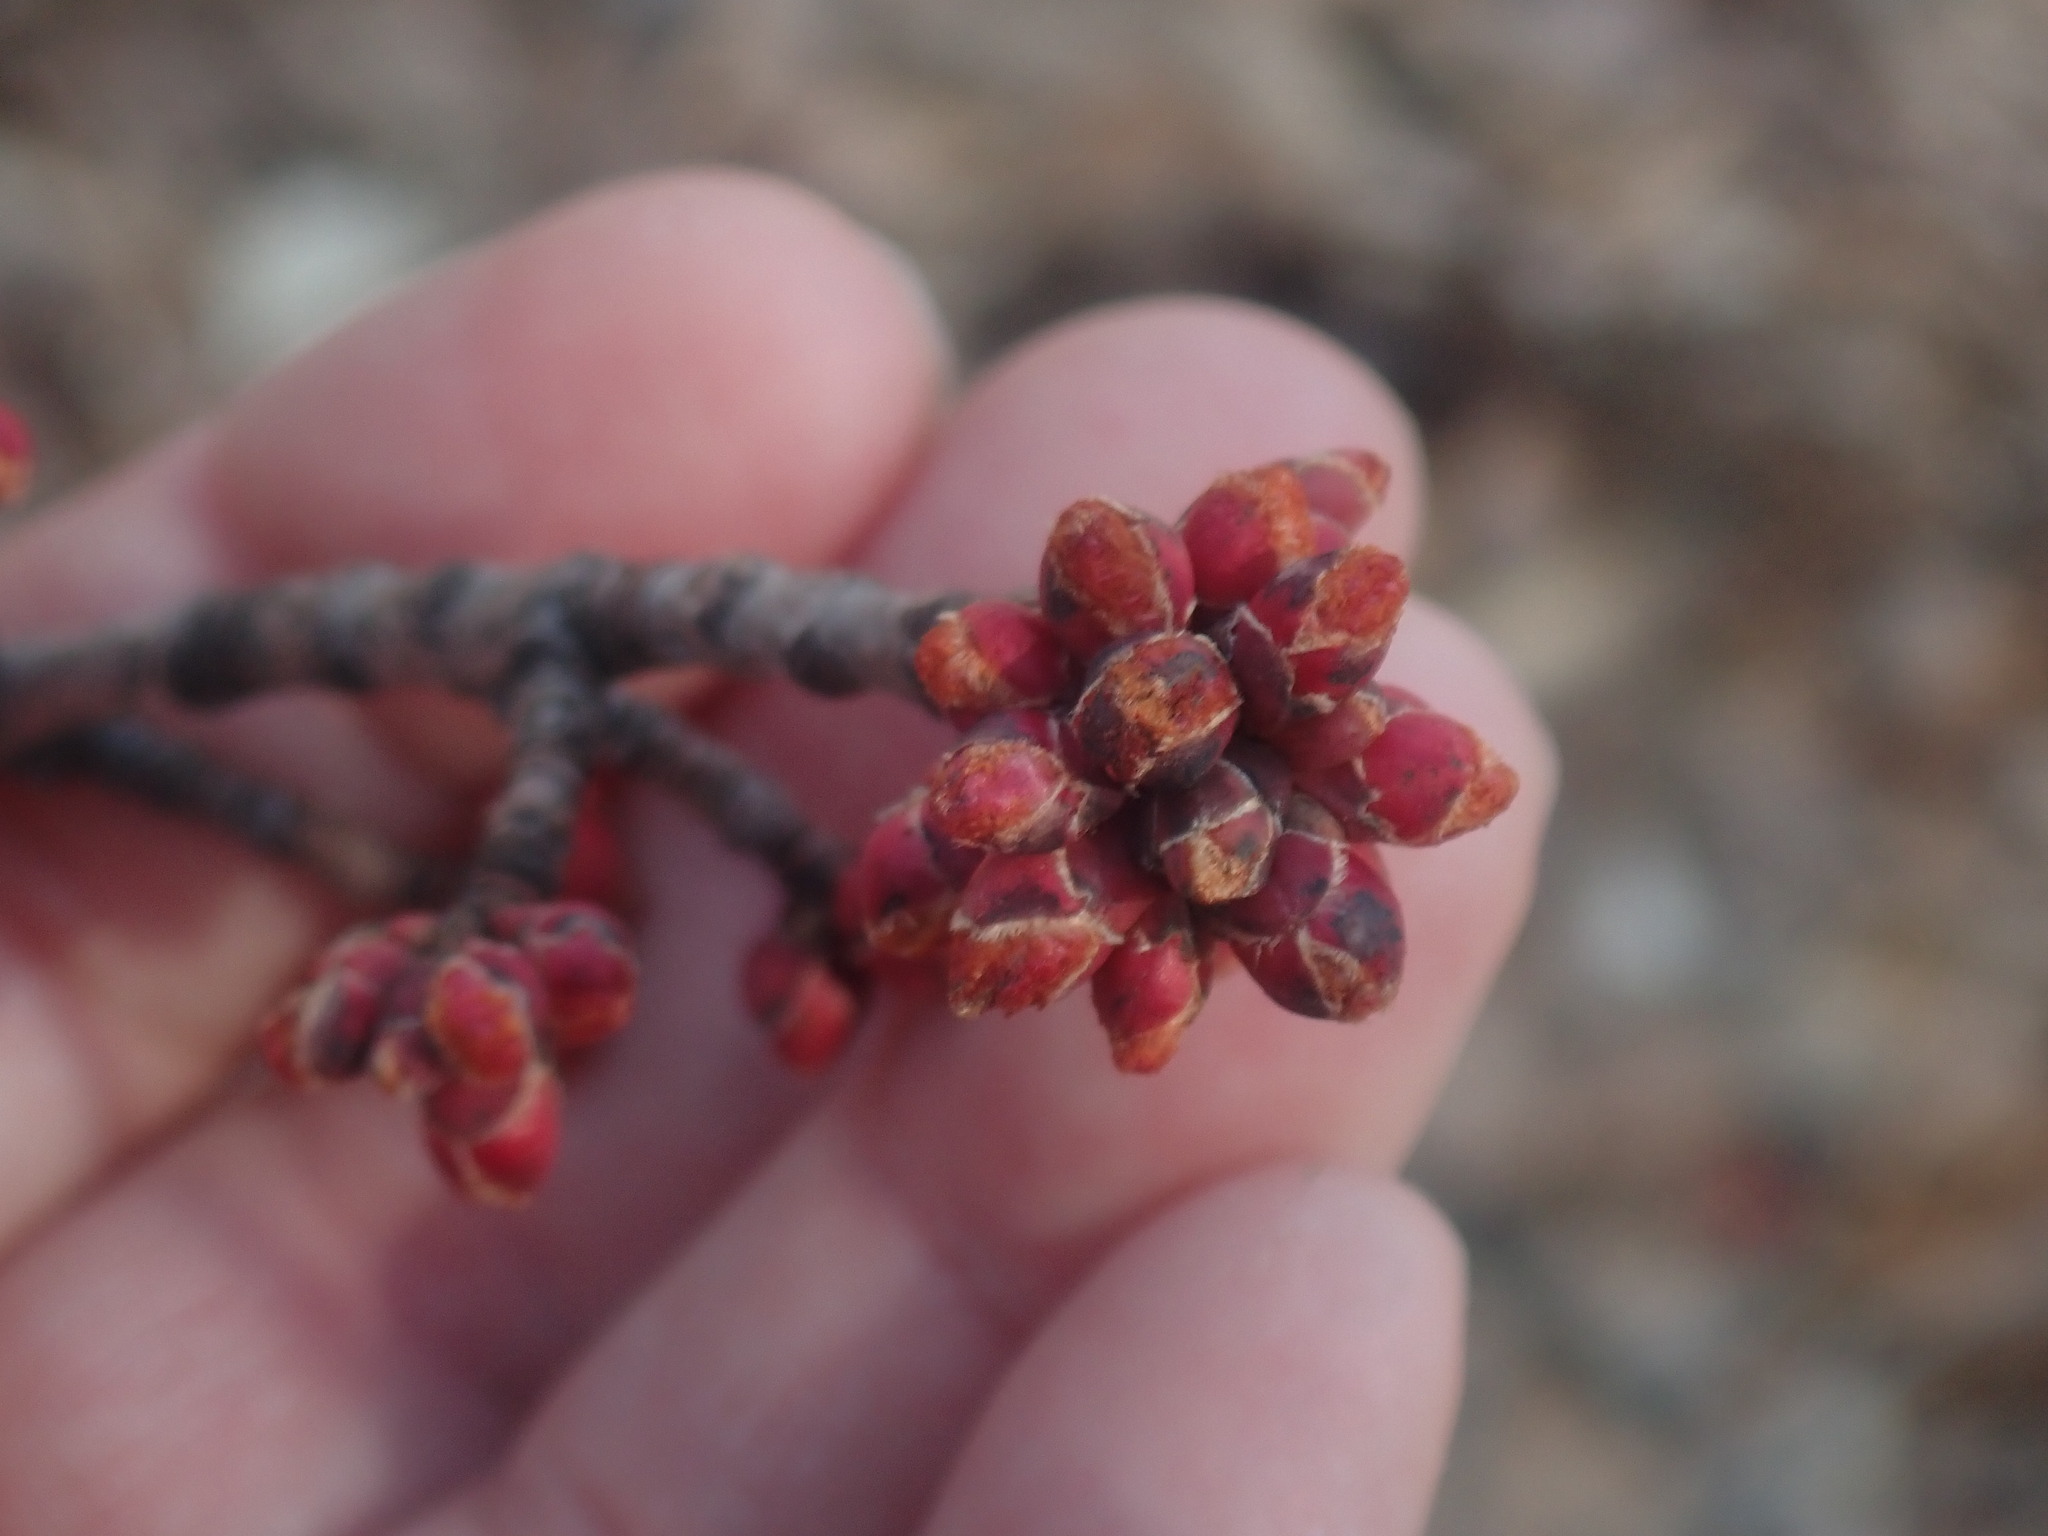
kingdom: Plantae
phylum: Tracheophyta
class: Magnoliopsida
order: Sapindales
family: Sapindaceae
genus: Acer
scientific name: Acer rubrum
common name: Red maple
